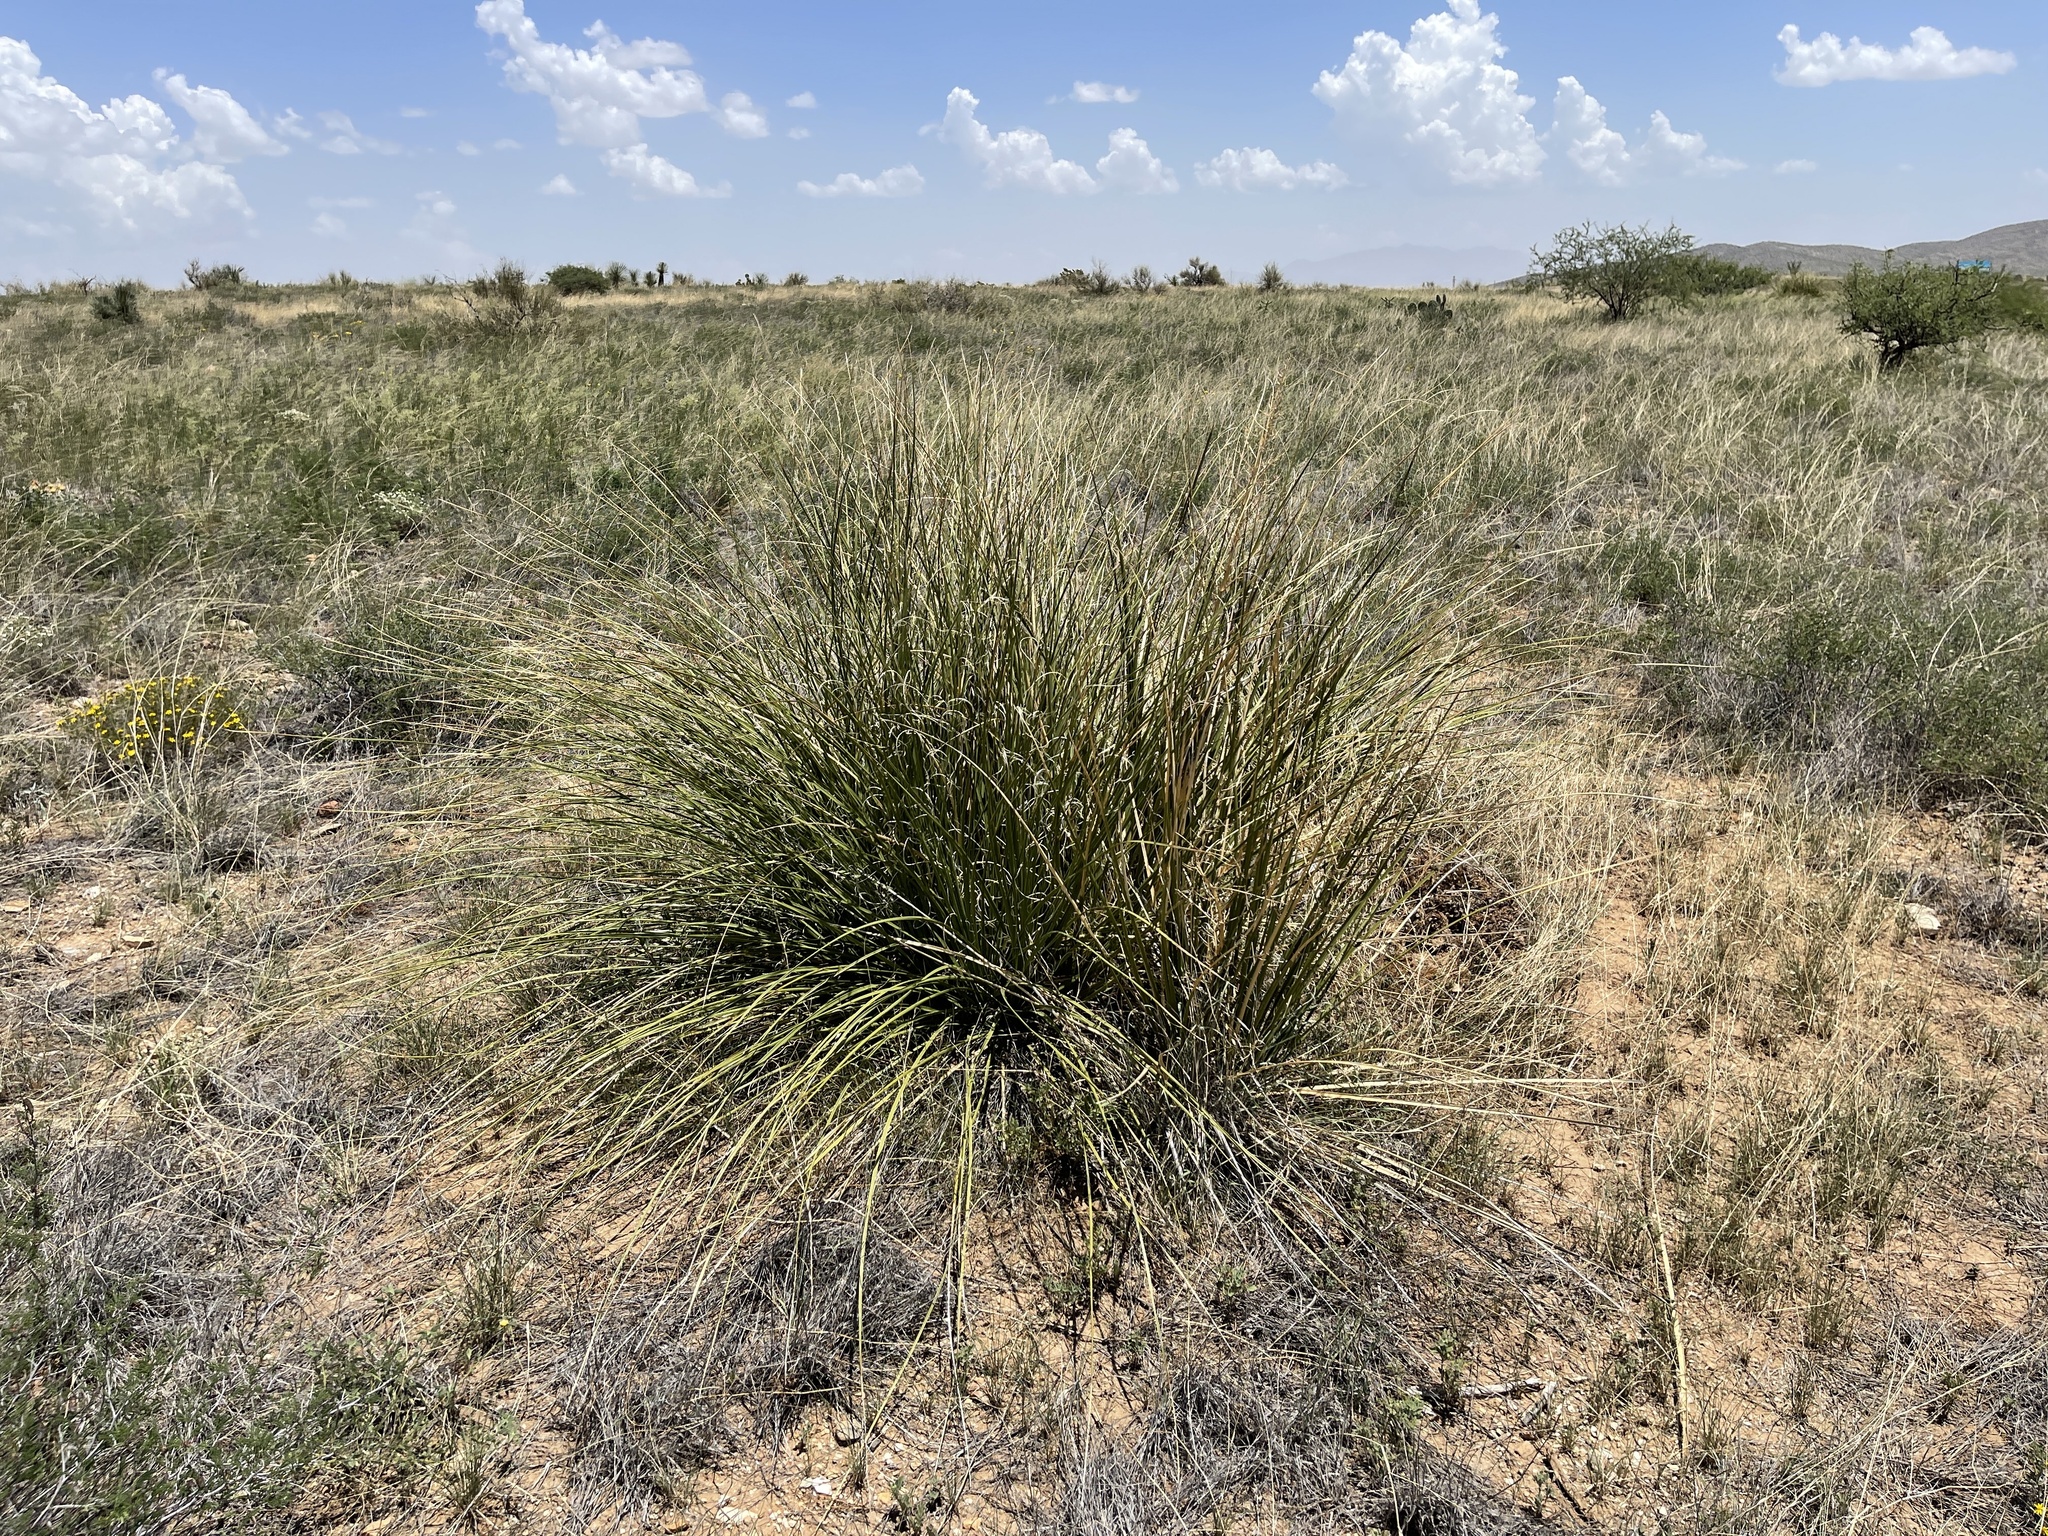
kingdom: Plantae
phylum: Tracheophyta
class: Liliopsida
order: Asparagales
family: Asparagaceae
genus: Nolina
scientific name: Nolina microcarpa
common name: Bear-grass
